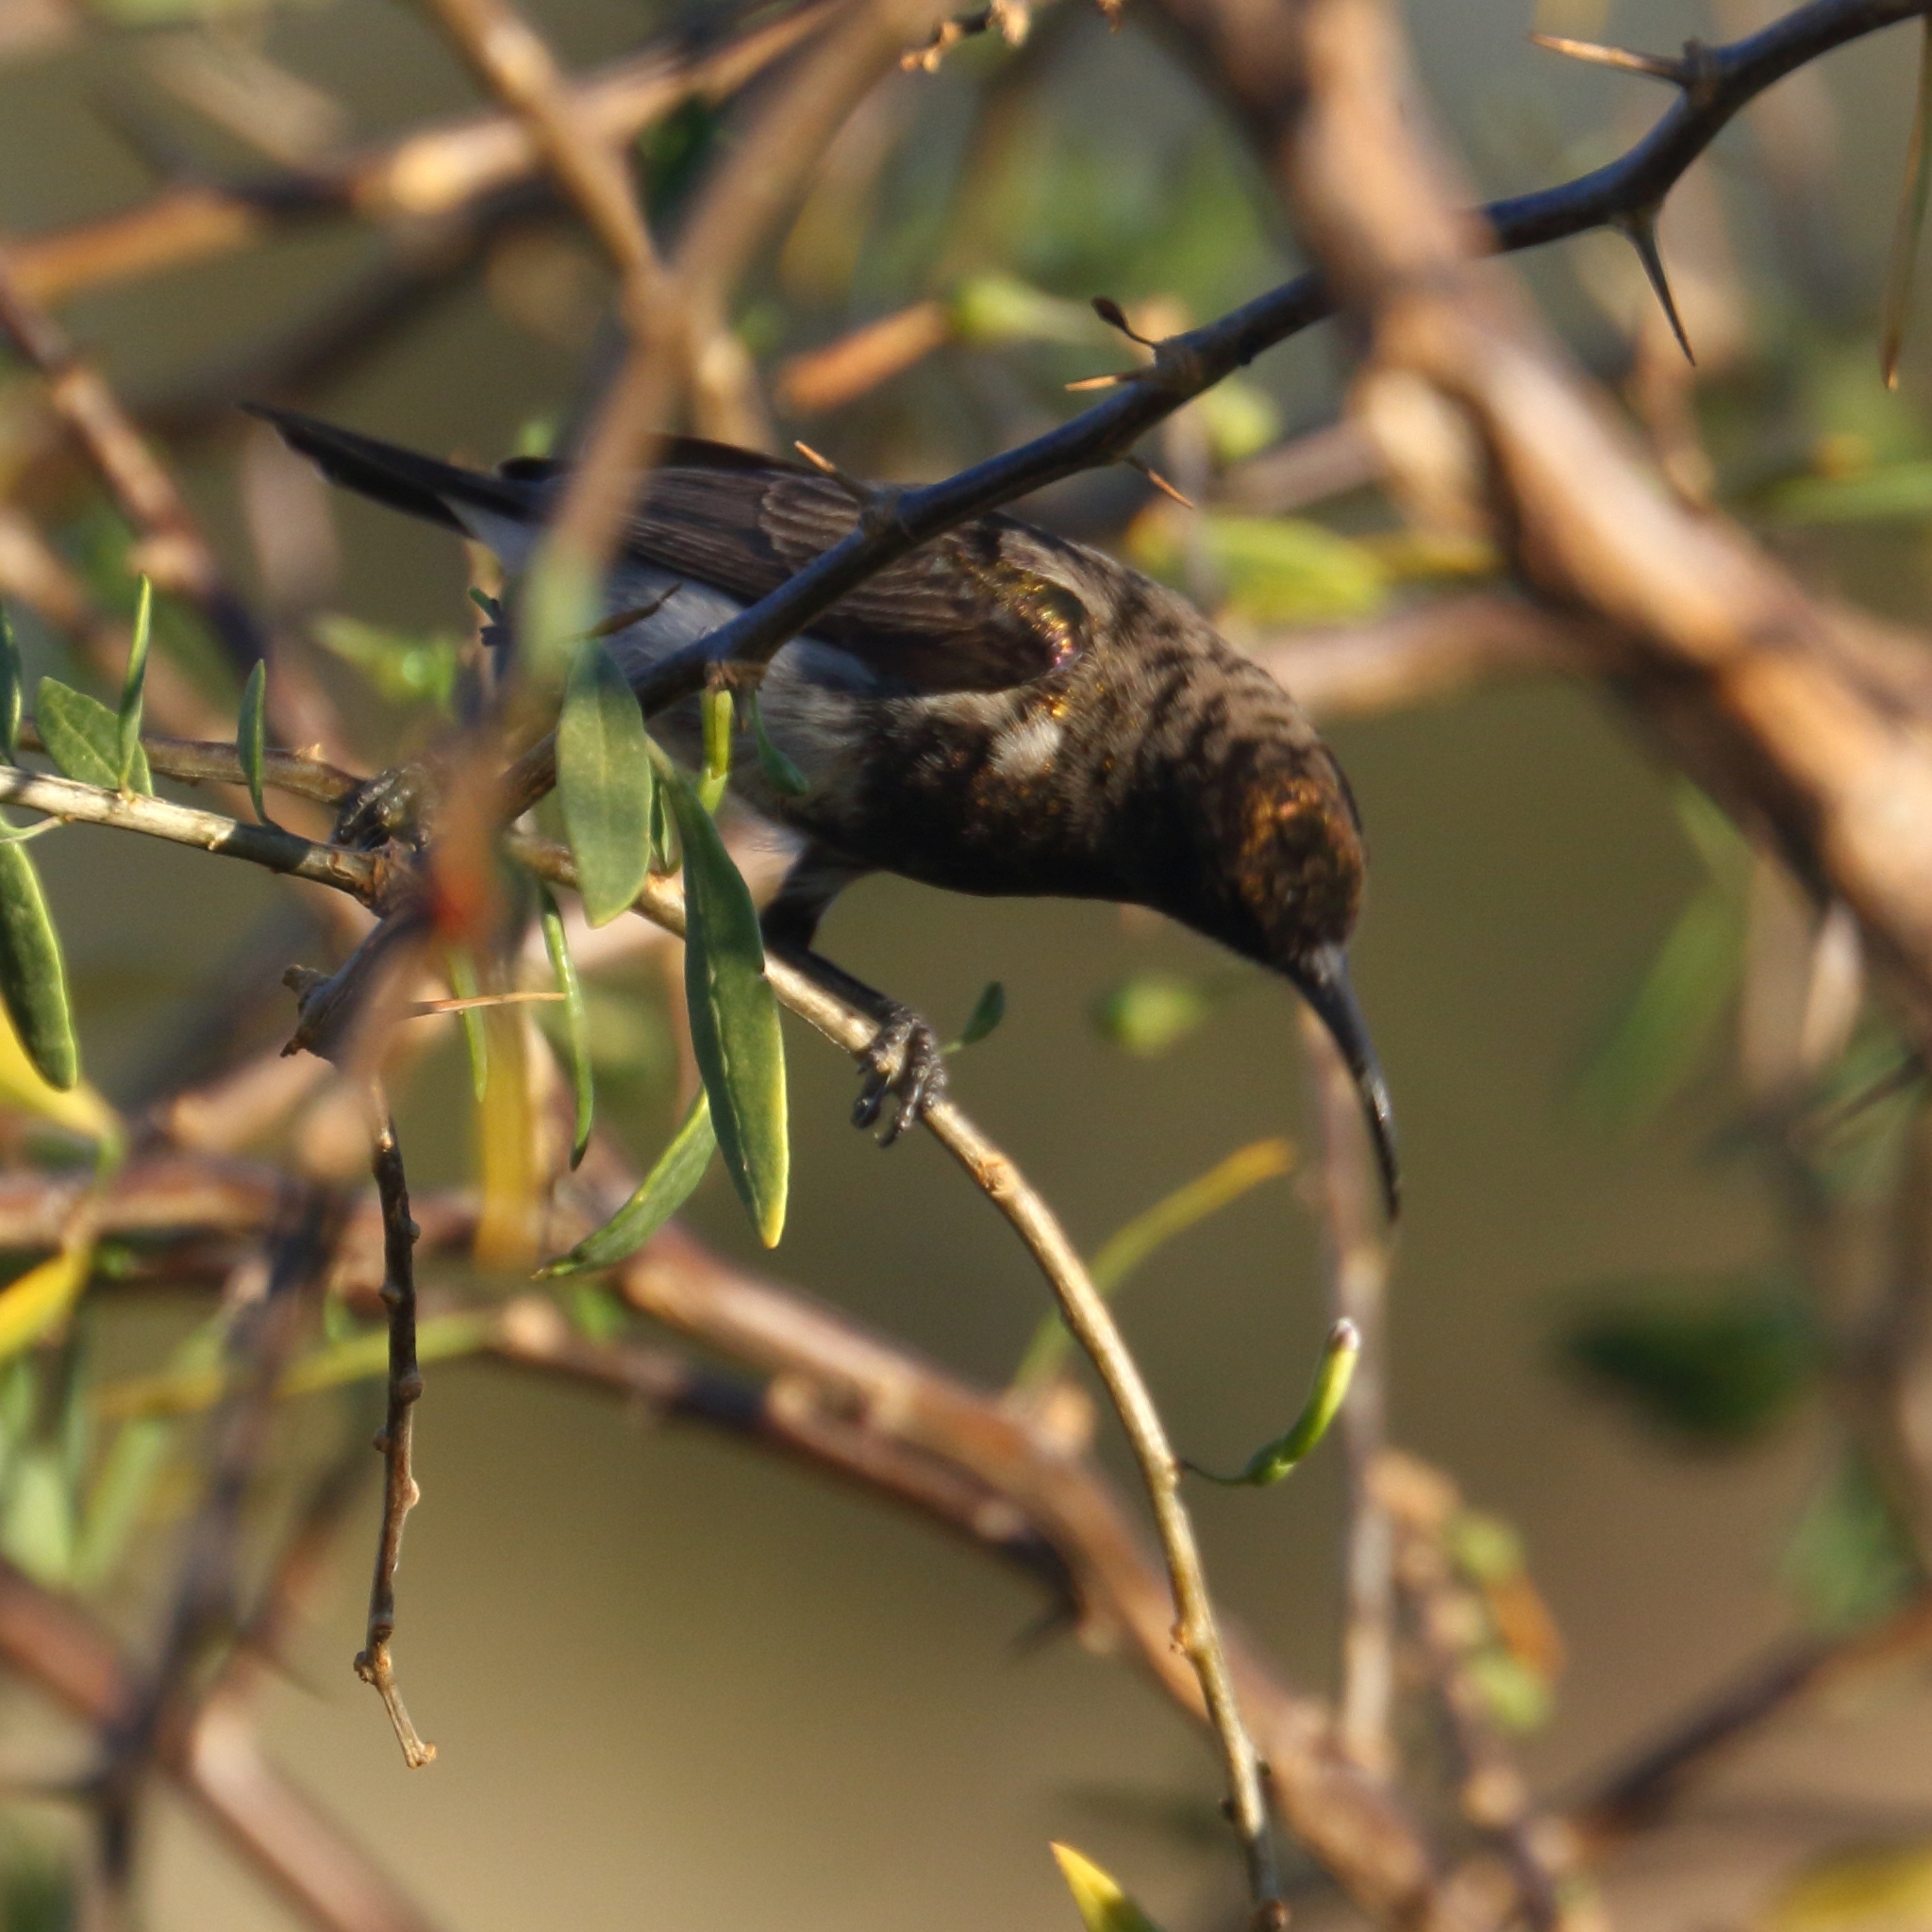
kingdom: Animalia
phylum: Chordata
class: Aves
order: Passeriformes
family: Nectariniidae
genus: Cinnyris
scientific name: Cinnyris fuscus
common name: Dusky sunbird
